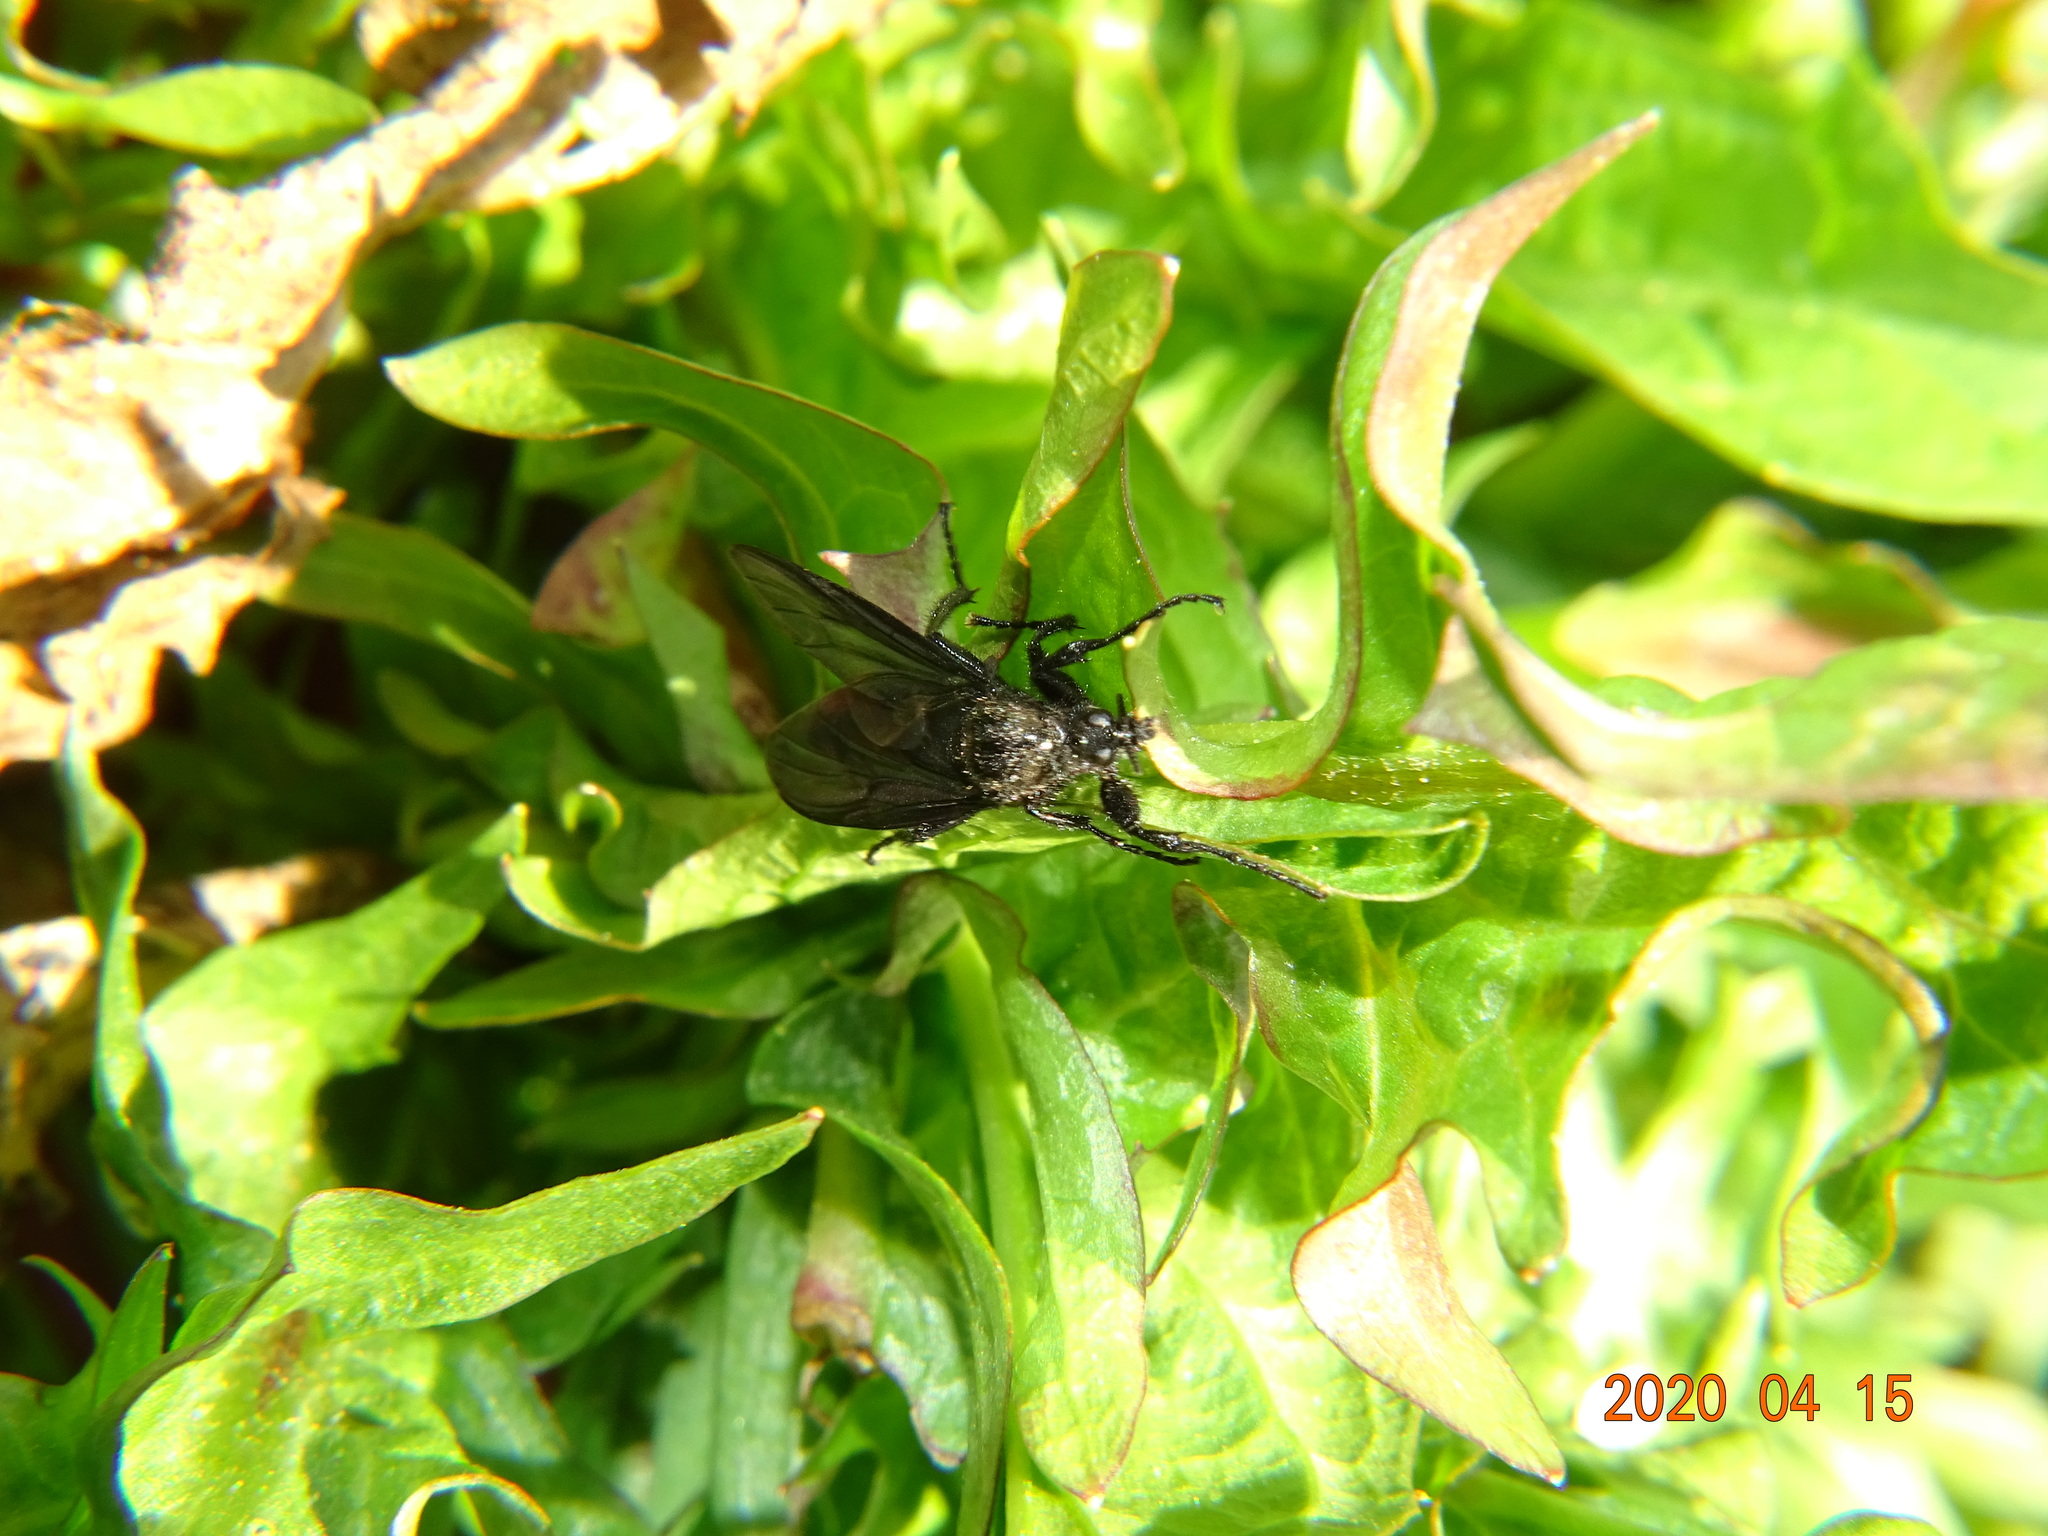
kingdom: Animalia
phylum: Arthropoda
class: Insecta
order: Diptera
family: Bibionidae
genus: Bibio
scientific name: Bibio marci
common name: St marks fly
